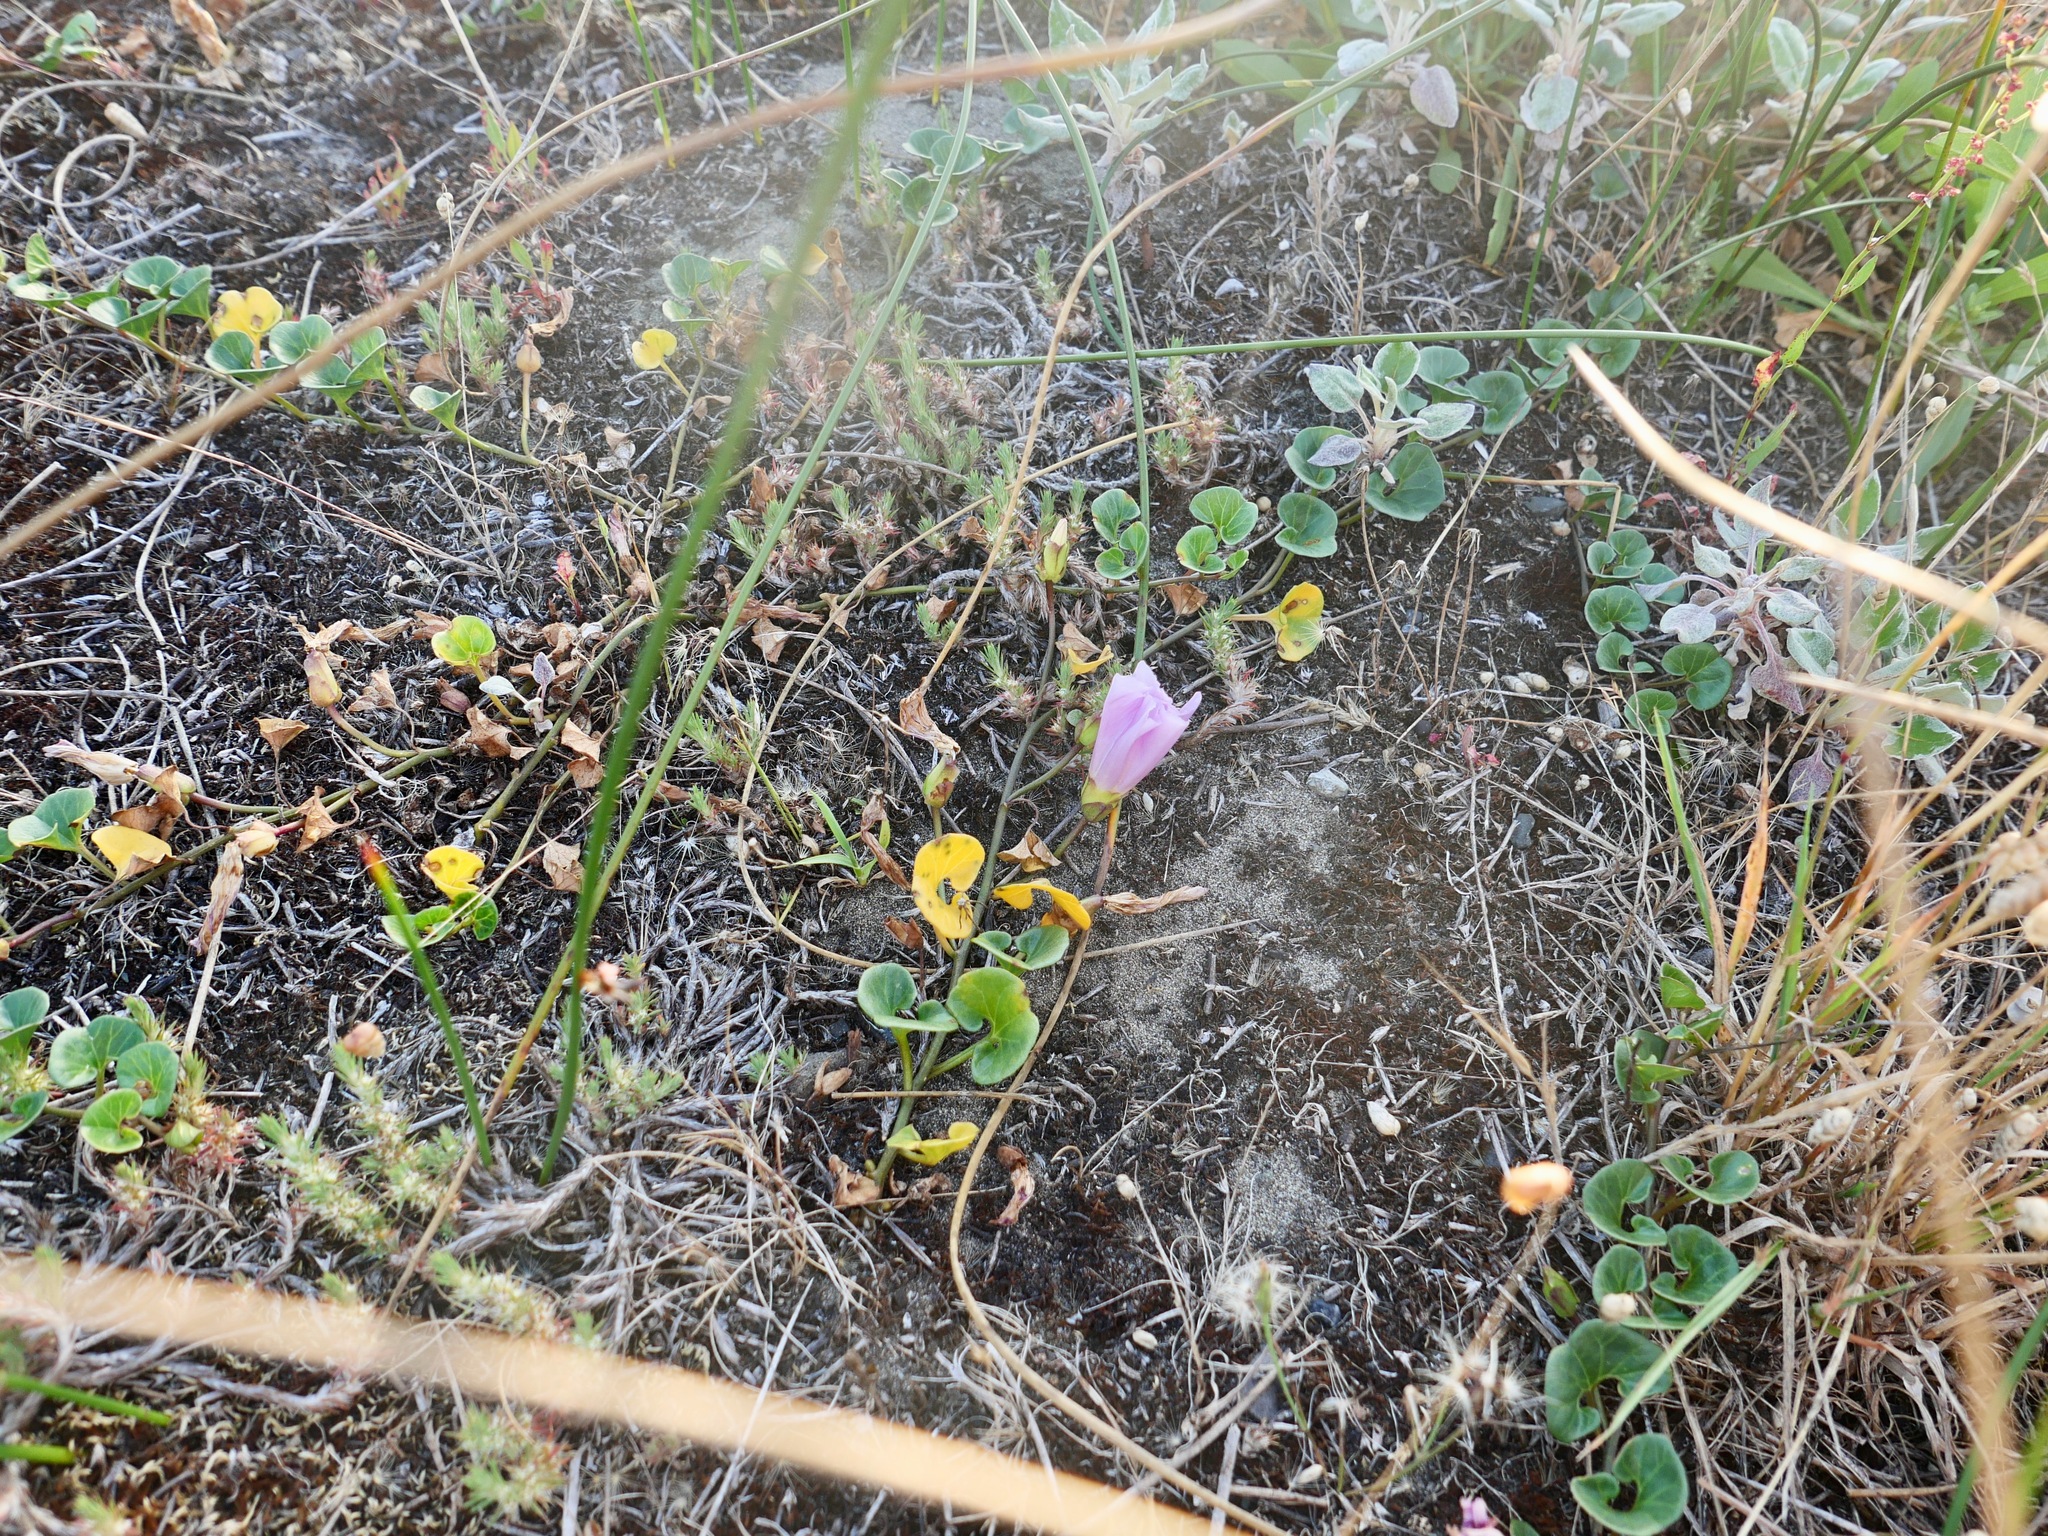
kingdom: Plantae
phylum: Tracheophyta
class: Magnoliopsida
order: Solanales
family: Convolvulaceae
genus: Calystegia
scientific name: Calystegia soldanella
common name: Sea bindweed
